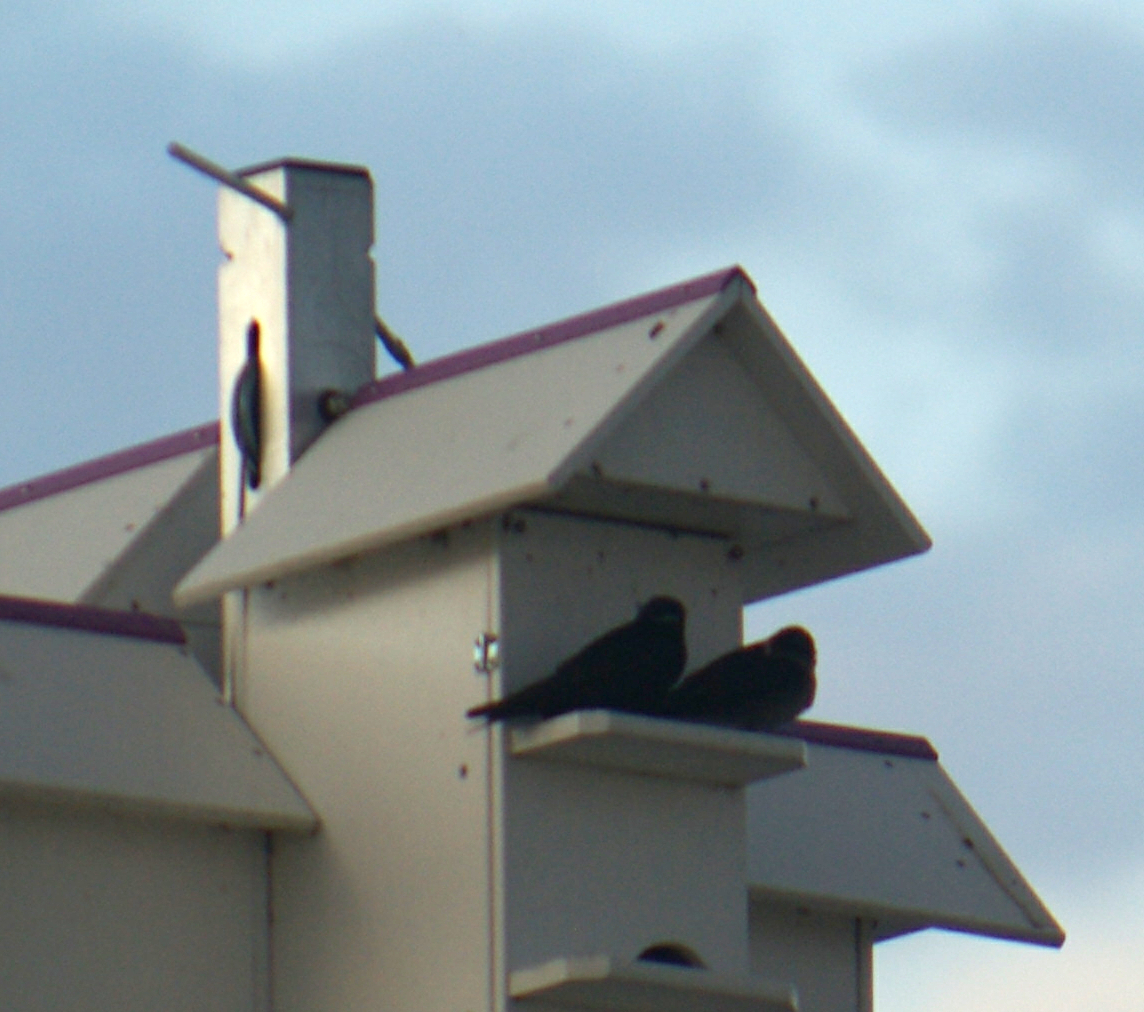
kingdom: Animalia
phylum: Chordata
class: Aves
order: Passeriformes
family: Hirundinidae
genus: Progne
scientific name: Progne subis
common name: Purple martin
